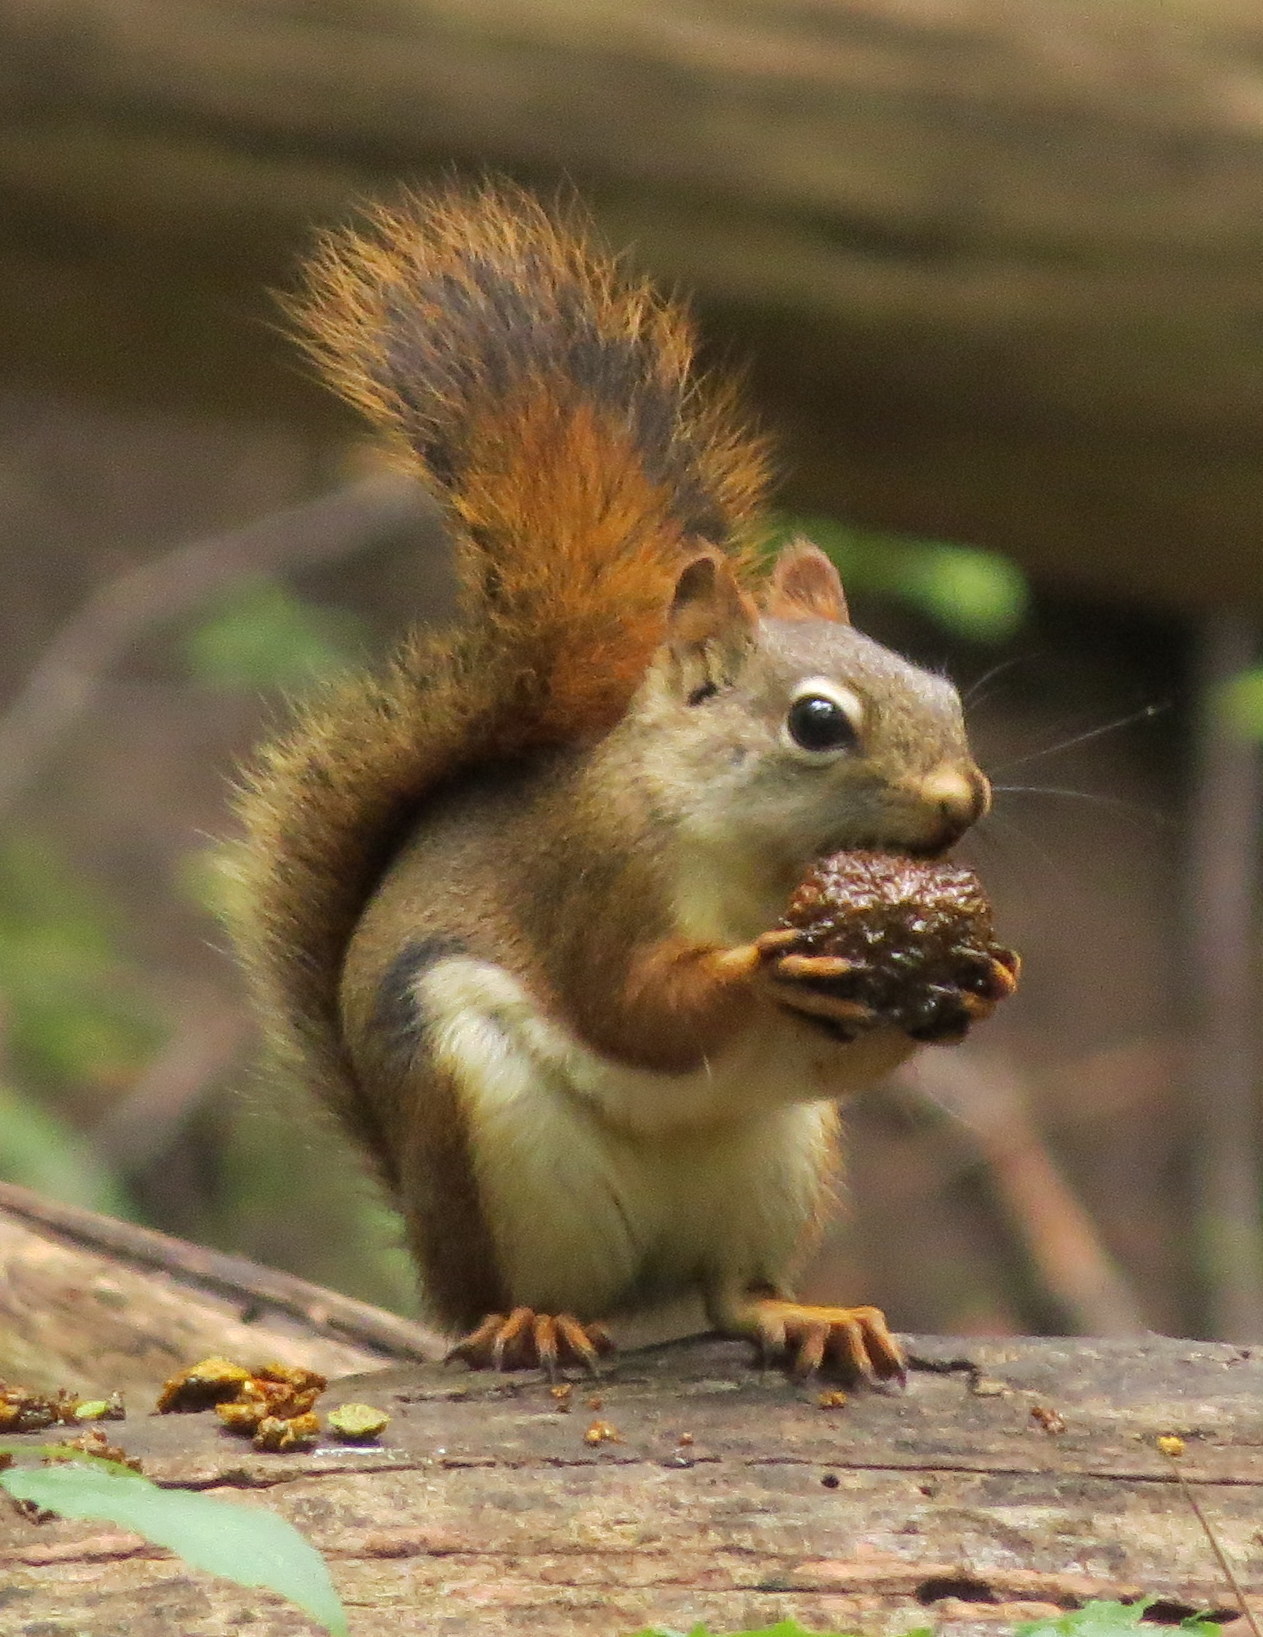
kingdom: Animalia
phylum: Chordata
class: Mammalia
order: Rodentia
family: Sciuridae
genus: Tamiasciurus
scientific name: Tamiasciurus hudsonicus
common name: Red squirrel
